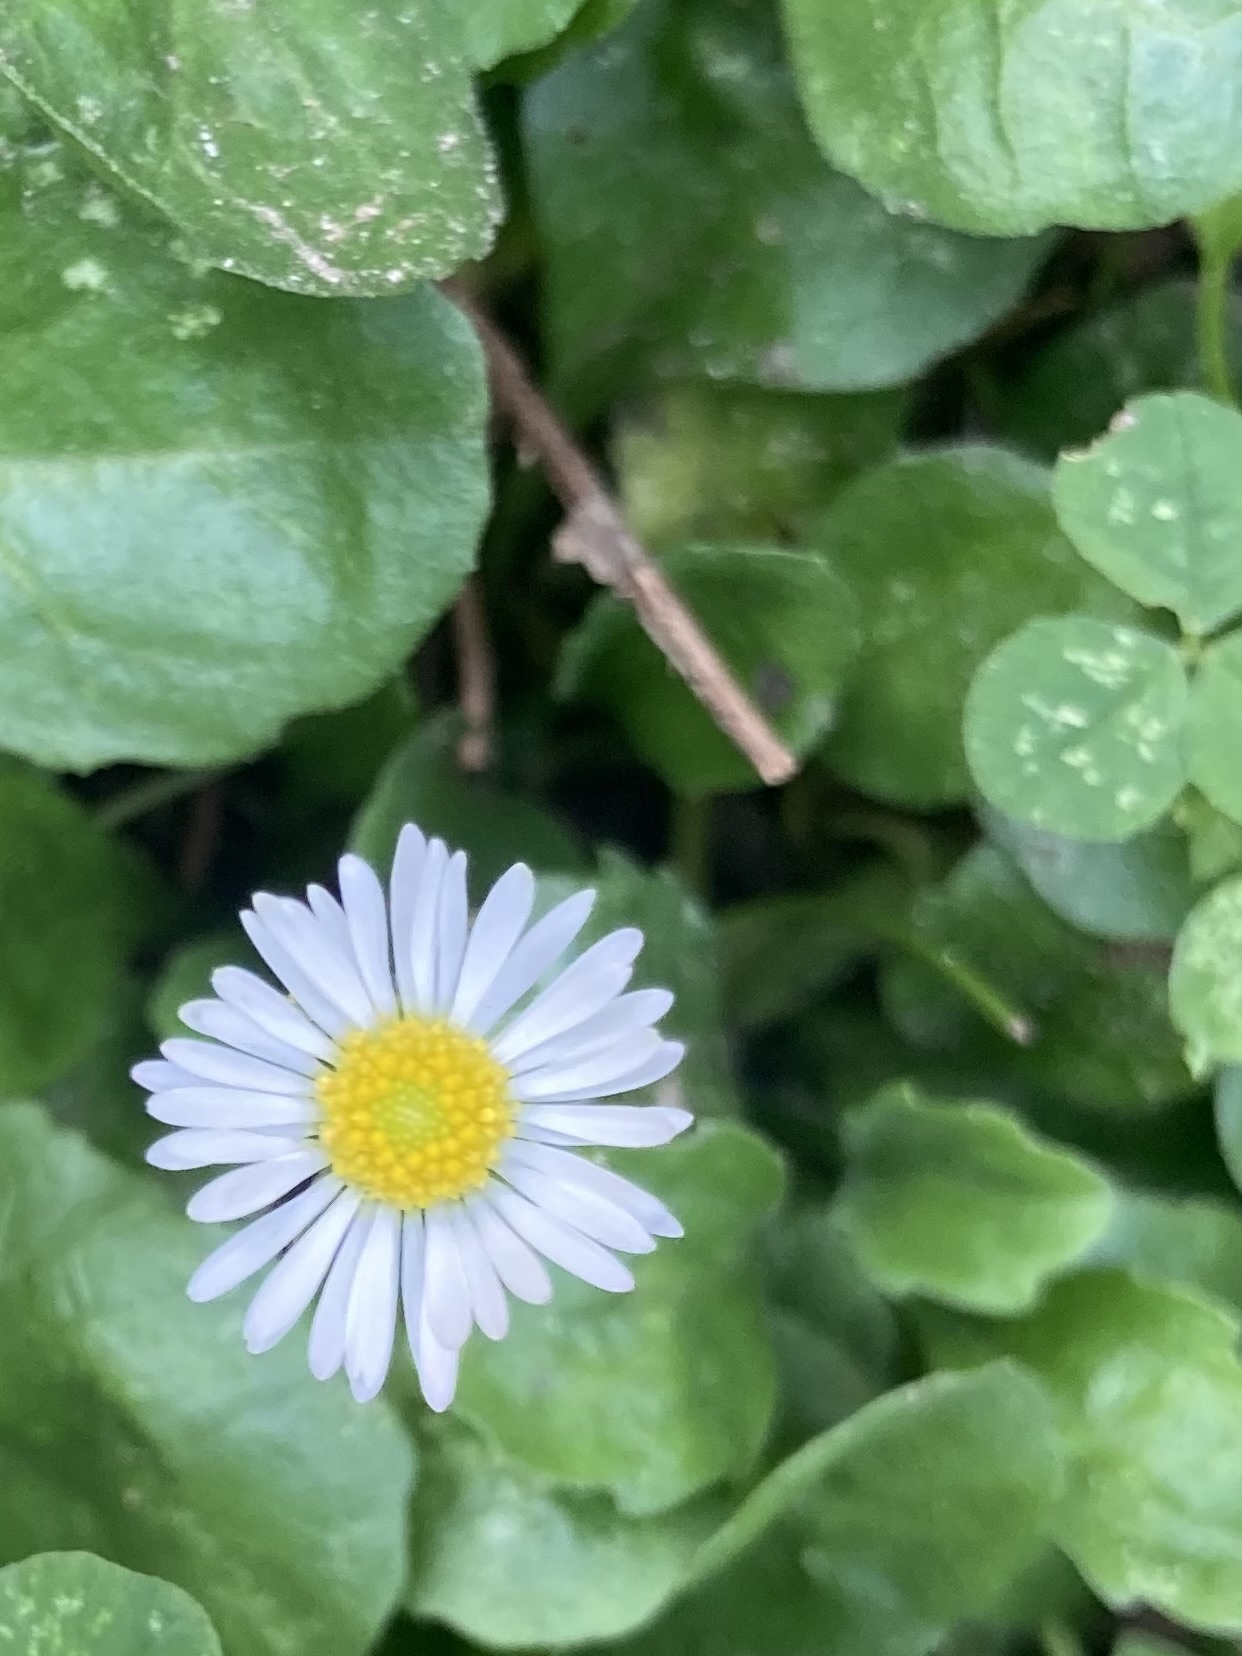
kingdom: Plantae
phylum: Tracheophyta
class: Magnoliopsida
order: Asterales
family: Asteraceae
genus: Bellis
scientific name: Bellis perennis
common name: Lawndaisy
